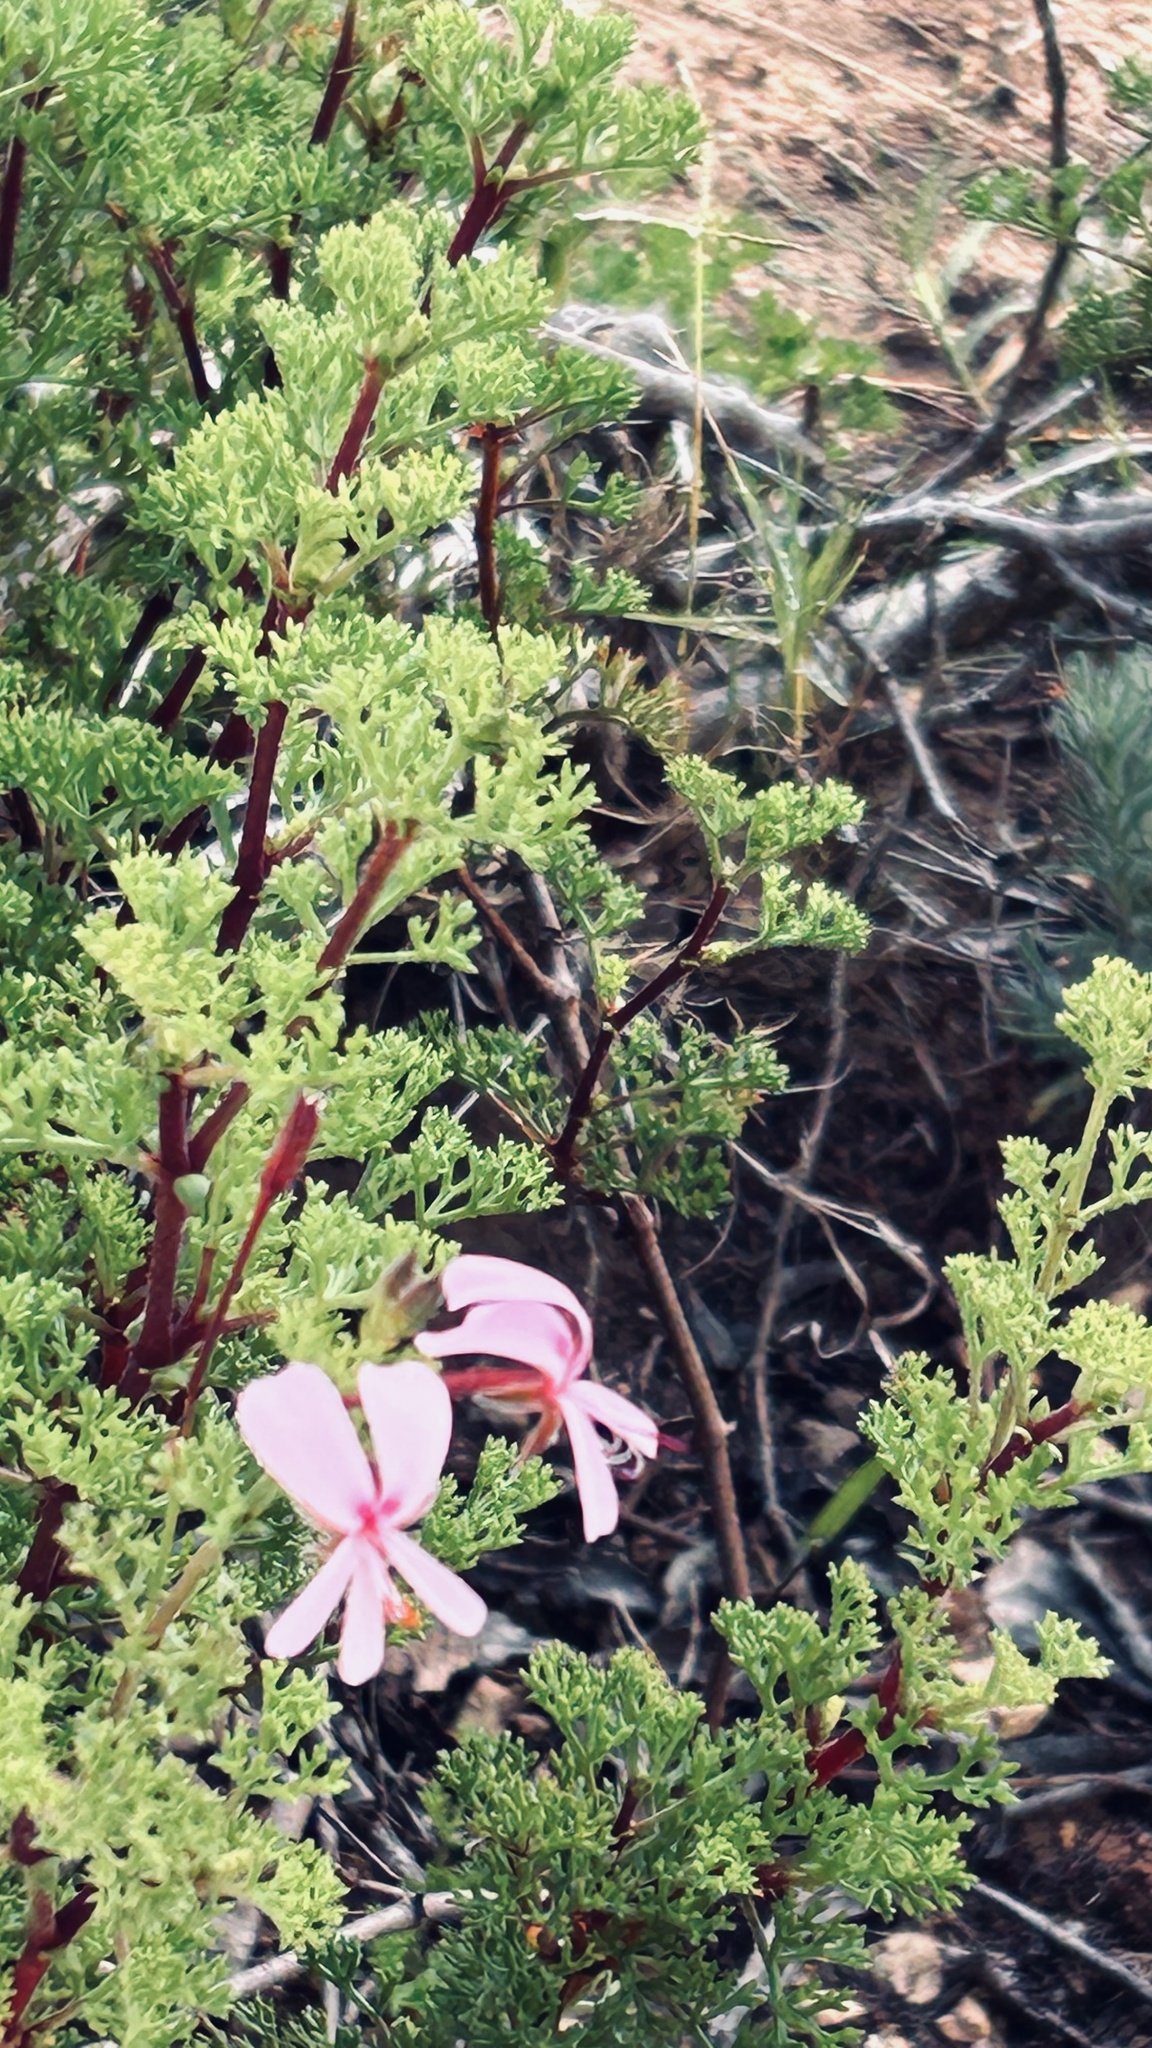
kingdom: Plantae
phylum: Tracheophyta
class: Magnoliopsida
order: Geraniales
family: Geraniaceae
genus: Pelargonium
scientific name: Pelargonium fruticosum
